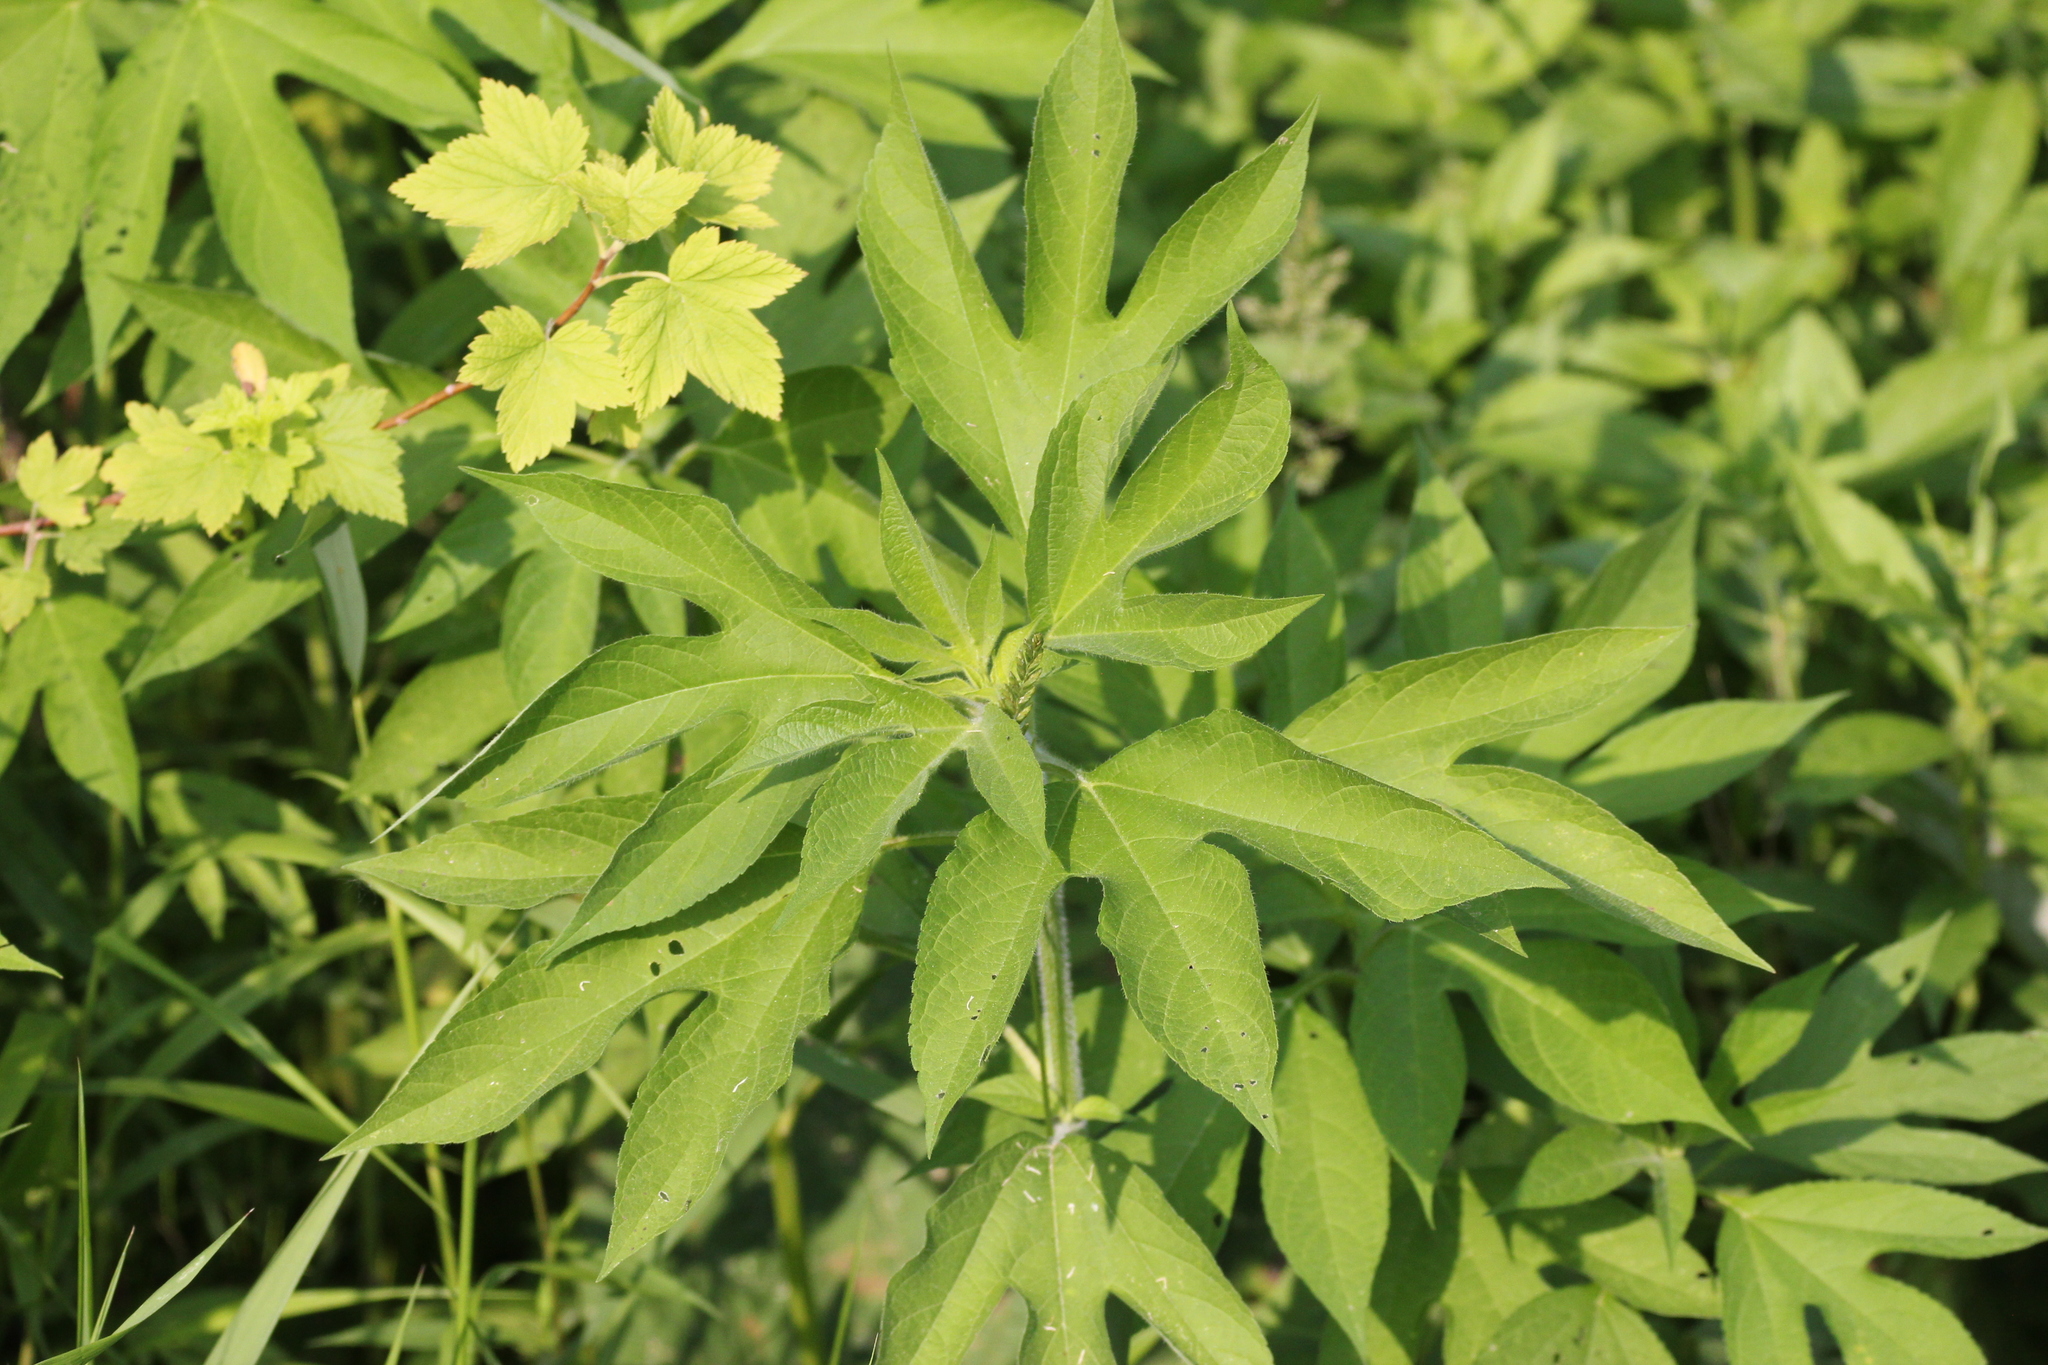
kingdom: Plantae
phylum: Tracheophyta
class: Magnoliopsida
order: Asterales
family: Asteraceae
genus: Ambrosia
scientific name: Ambrosia trifida
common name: Giant ragweed
